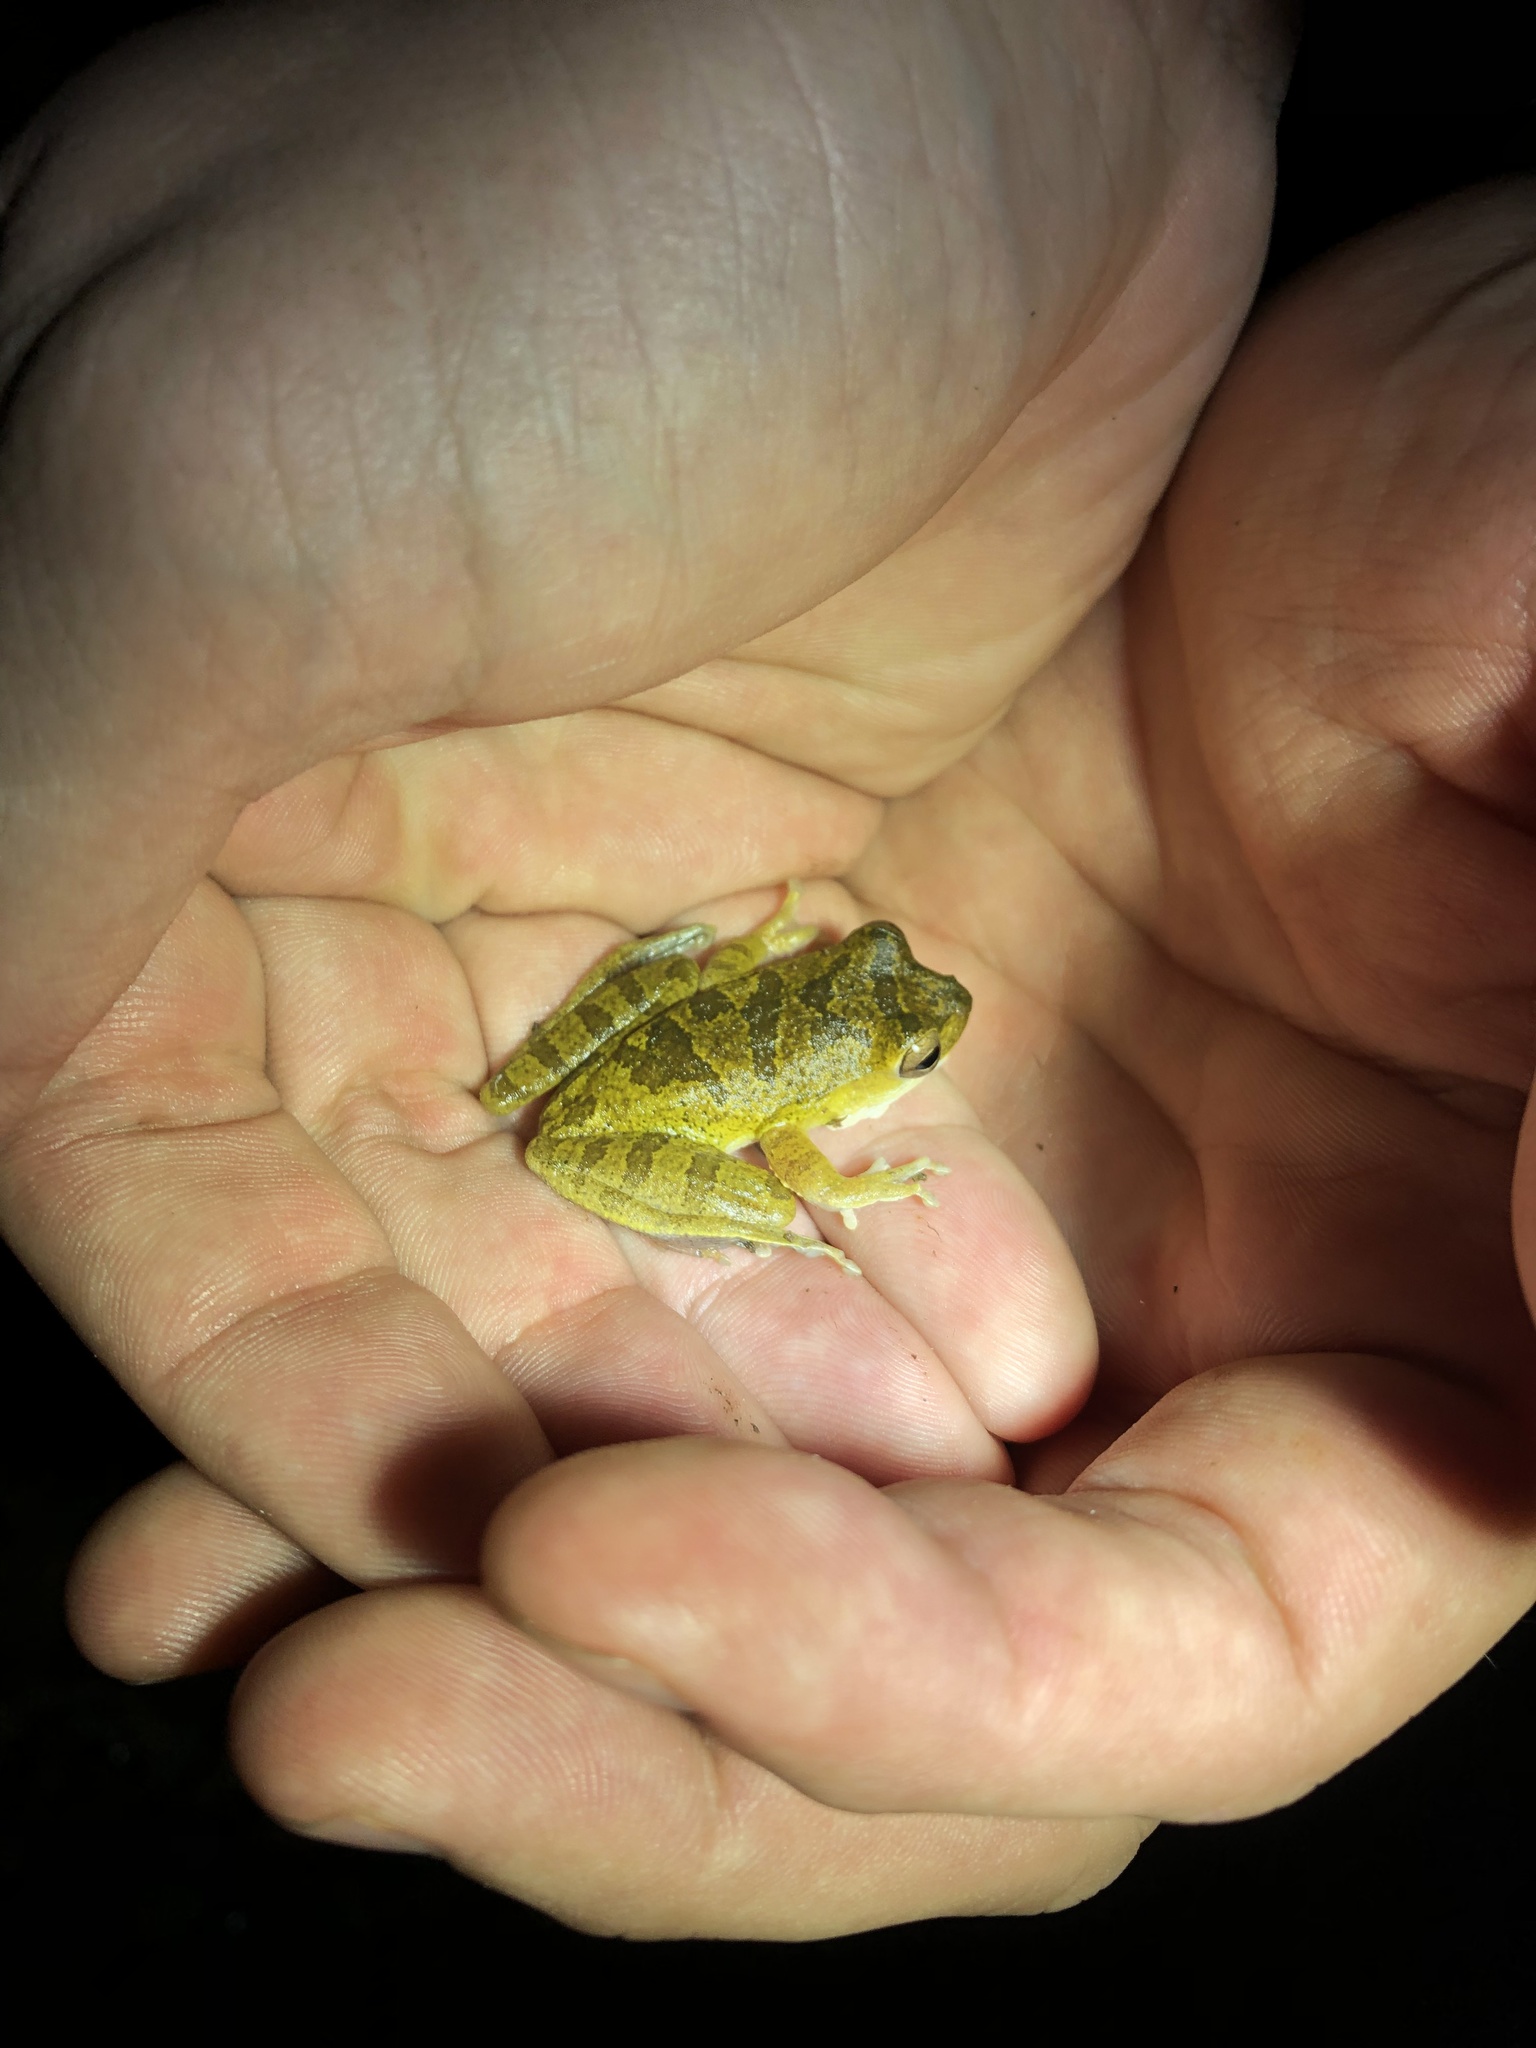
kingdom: Animalia
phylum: Chordata
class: Amphibia
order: Anura
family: Hylidae
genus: Smilisca
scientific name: Smilisca sordida
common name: Veragua cross-banded treefrog
